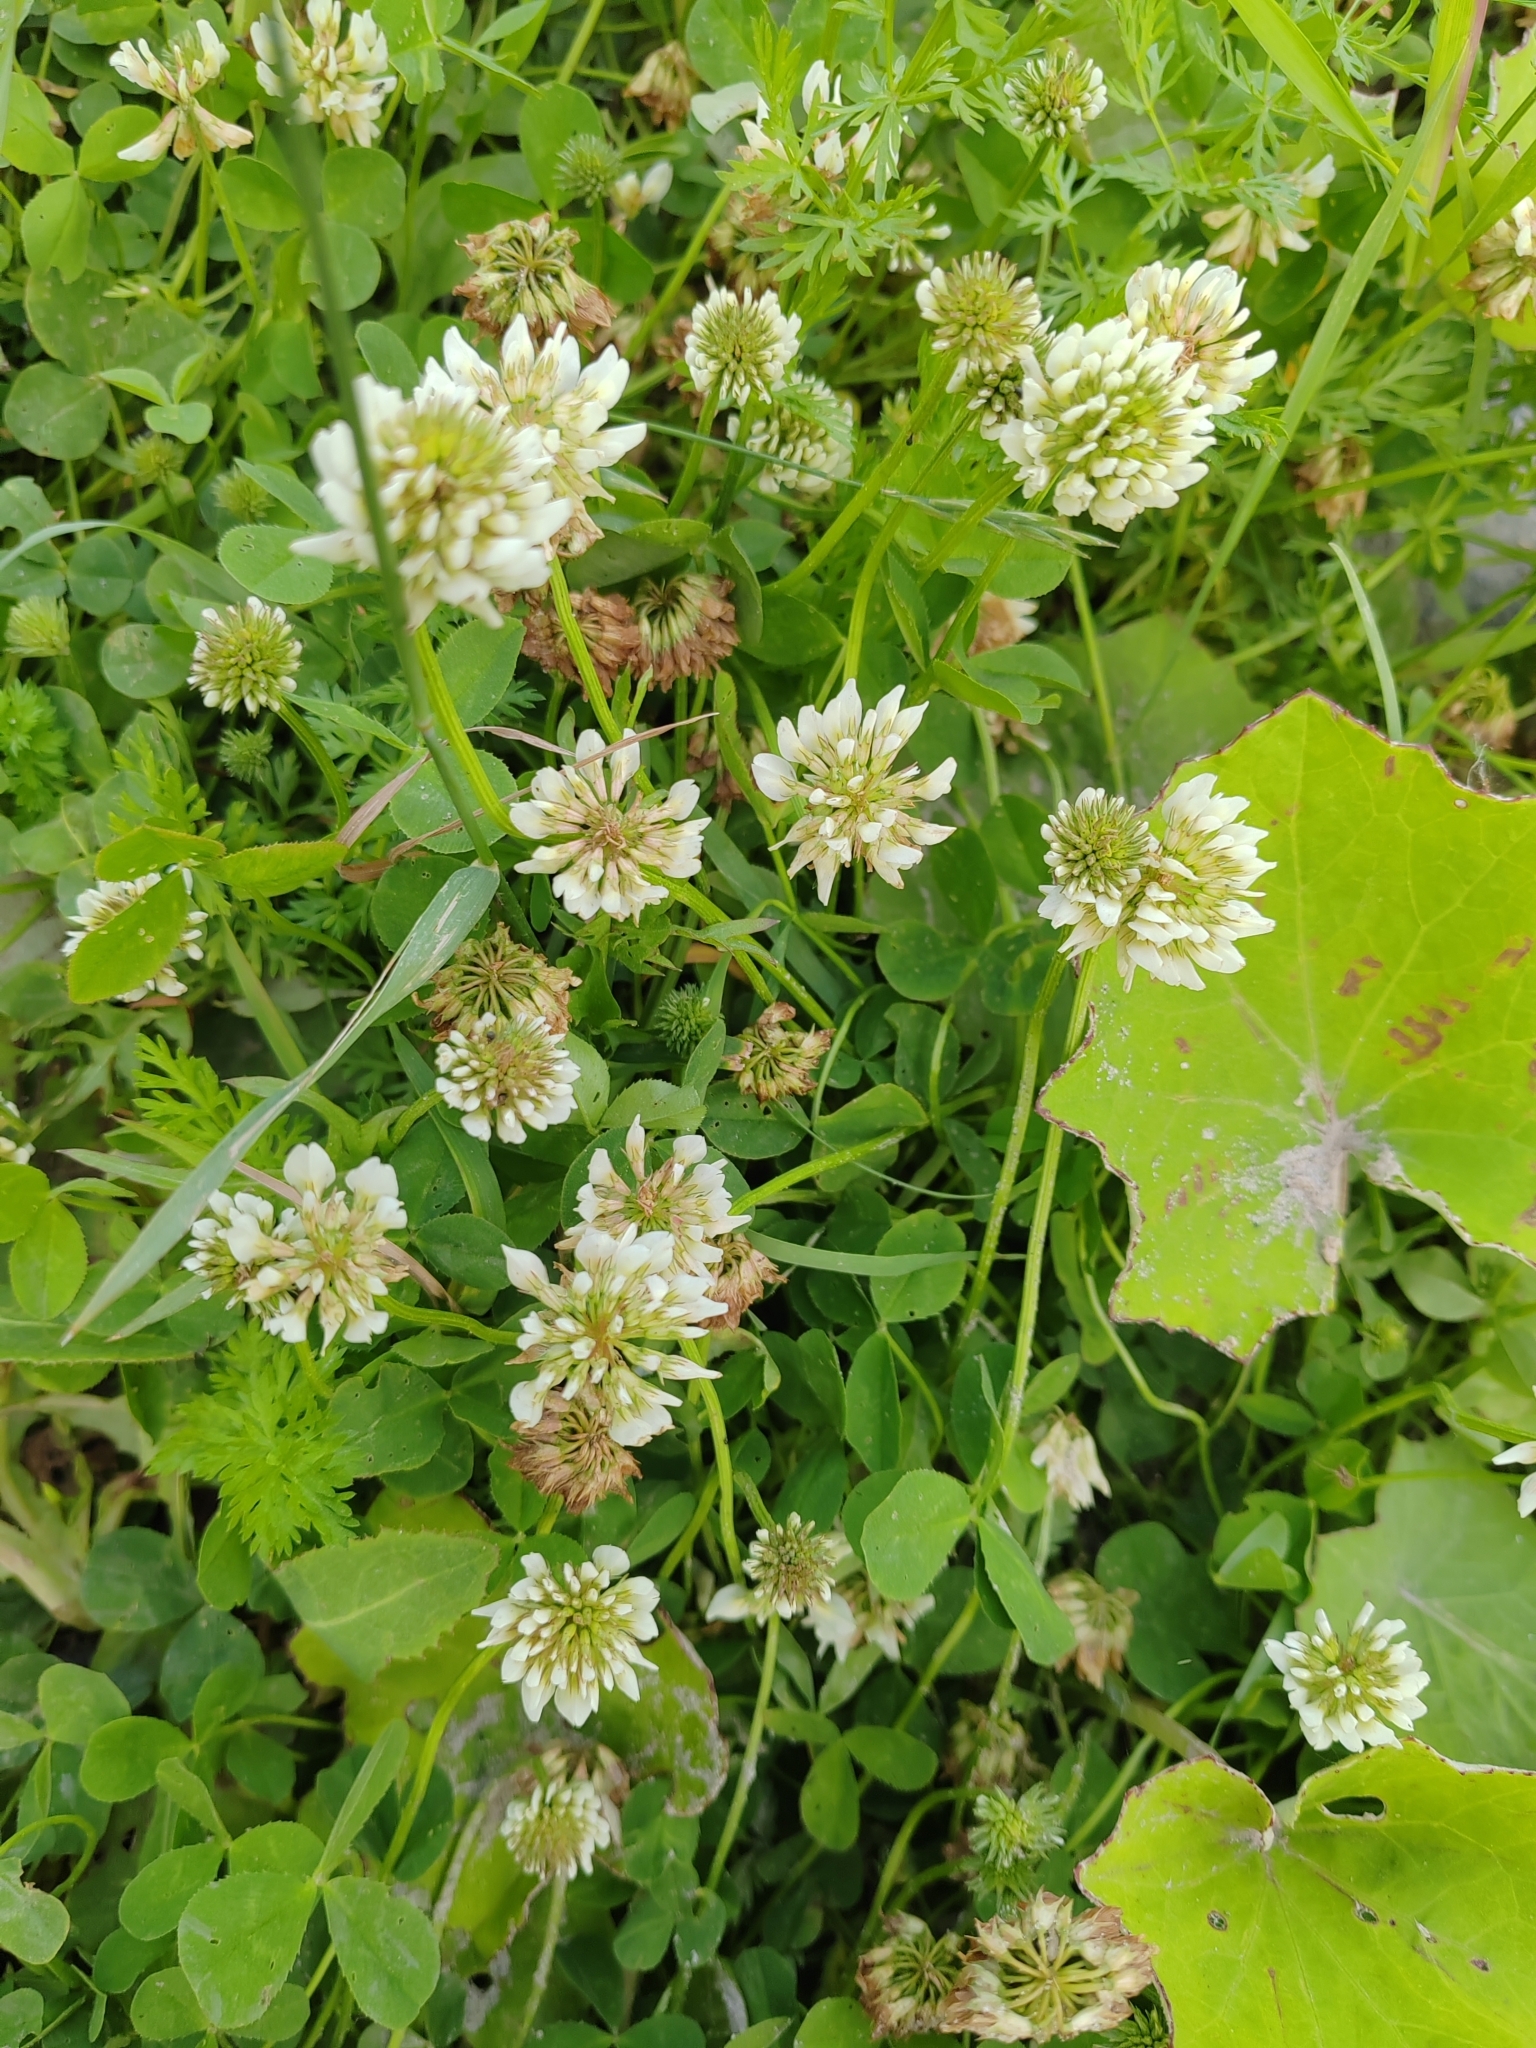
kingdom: Plantae
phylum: Tracheophyta
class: Magnoliopsida
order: Fabales
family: Fabaceae
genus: Trifolium
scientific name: Trifolium repens
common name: White clover
